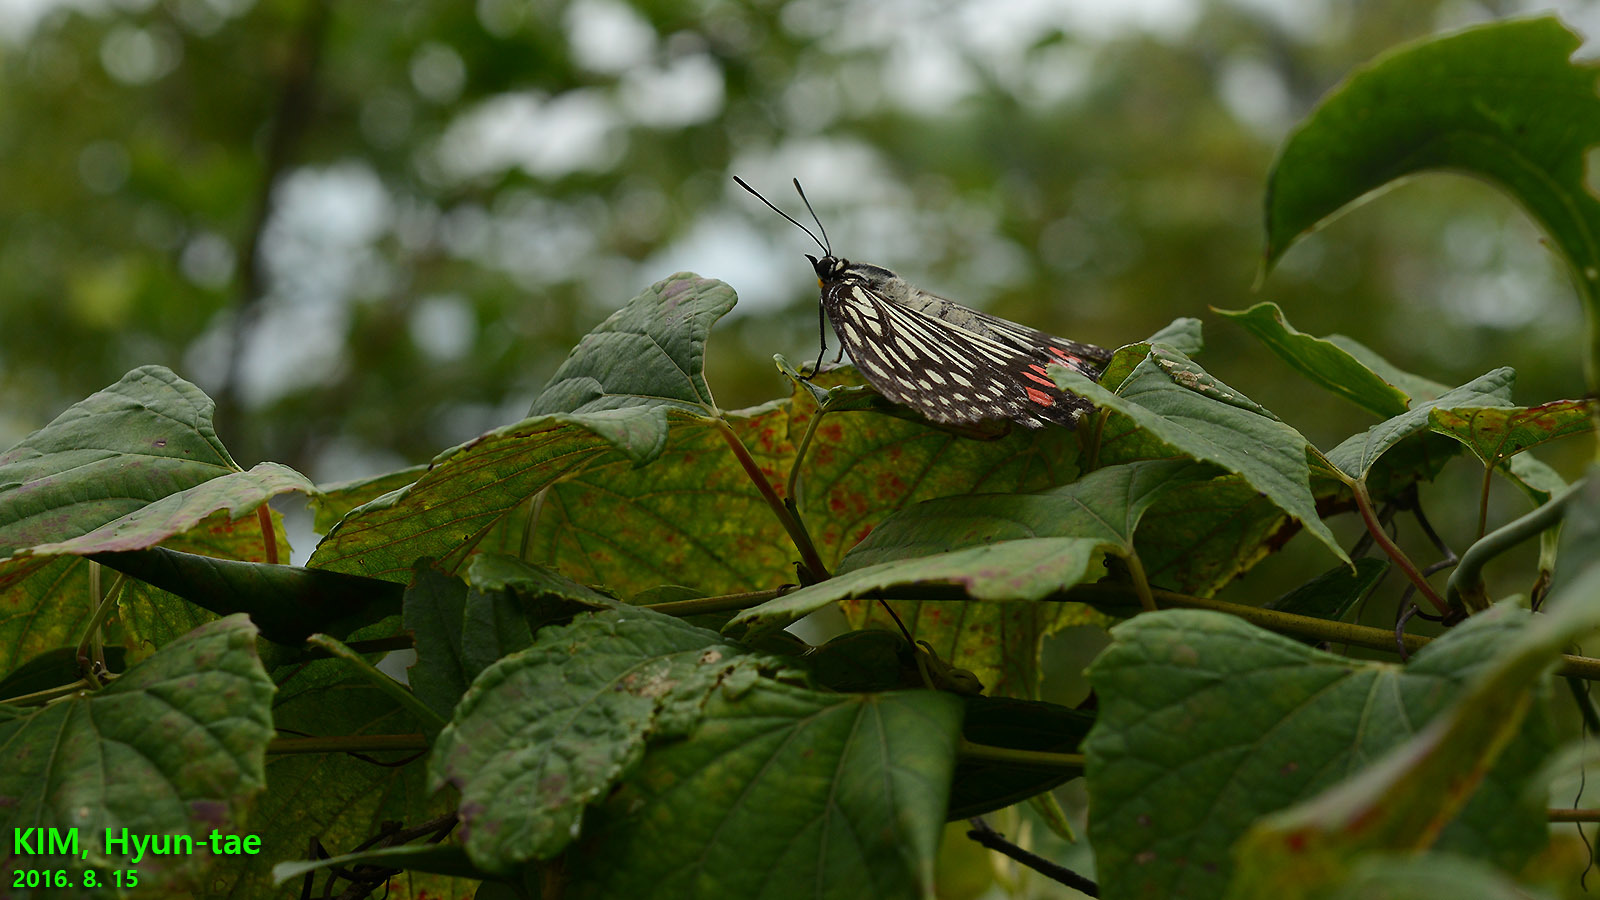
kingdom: Animalia
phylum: Arthropoda
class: Insecta
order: Lepidoptera
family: Nymphalidae
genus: Hestina
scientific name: Hestina assimilis
